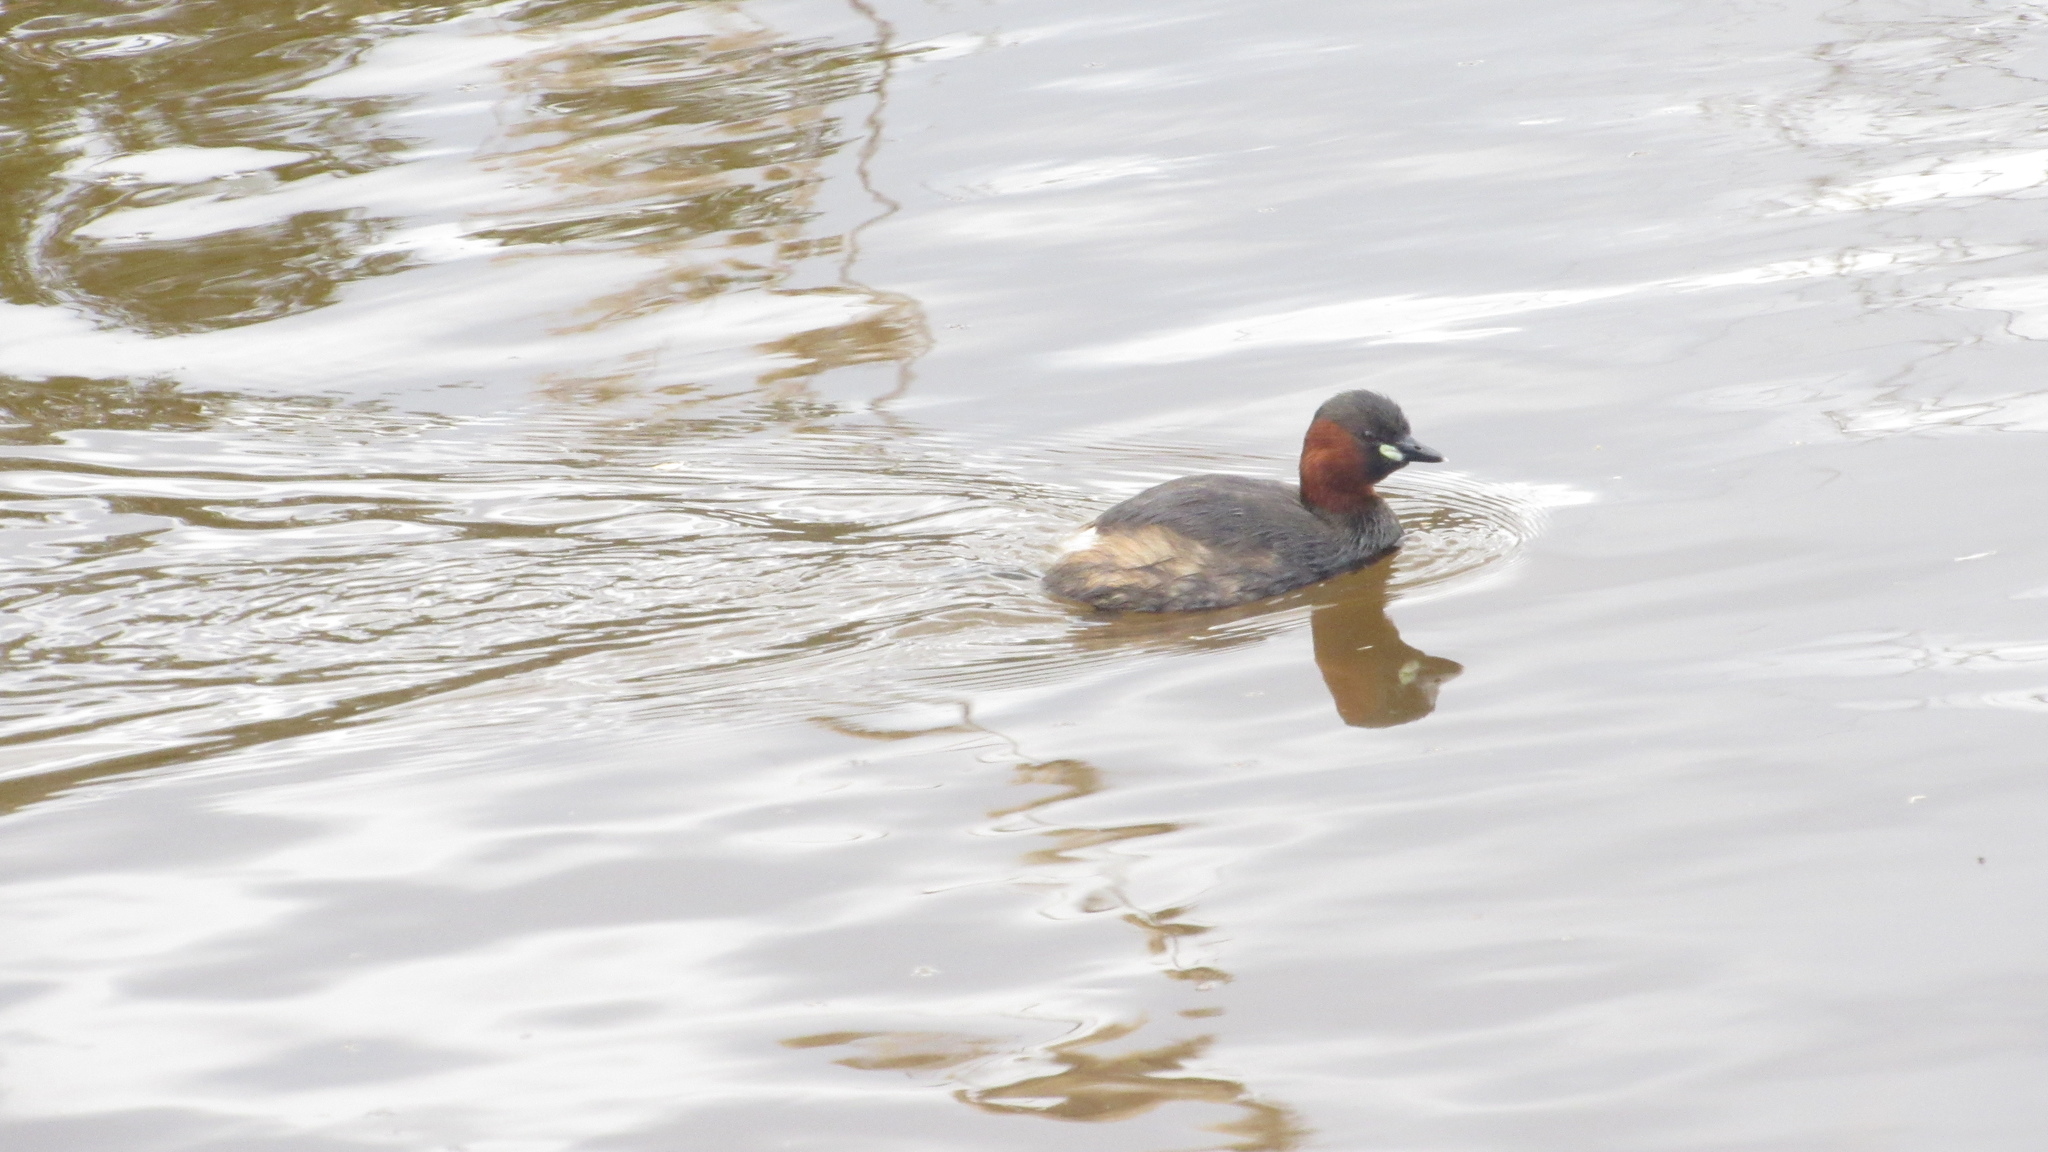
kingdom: Animalia
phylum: Chordata
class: Aves
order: Podicipediformes
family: Podicipedidae
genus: Tachybaptus
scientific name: Tachybaptus ruficollis
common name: Little grebe
